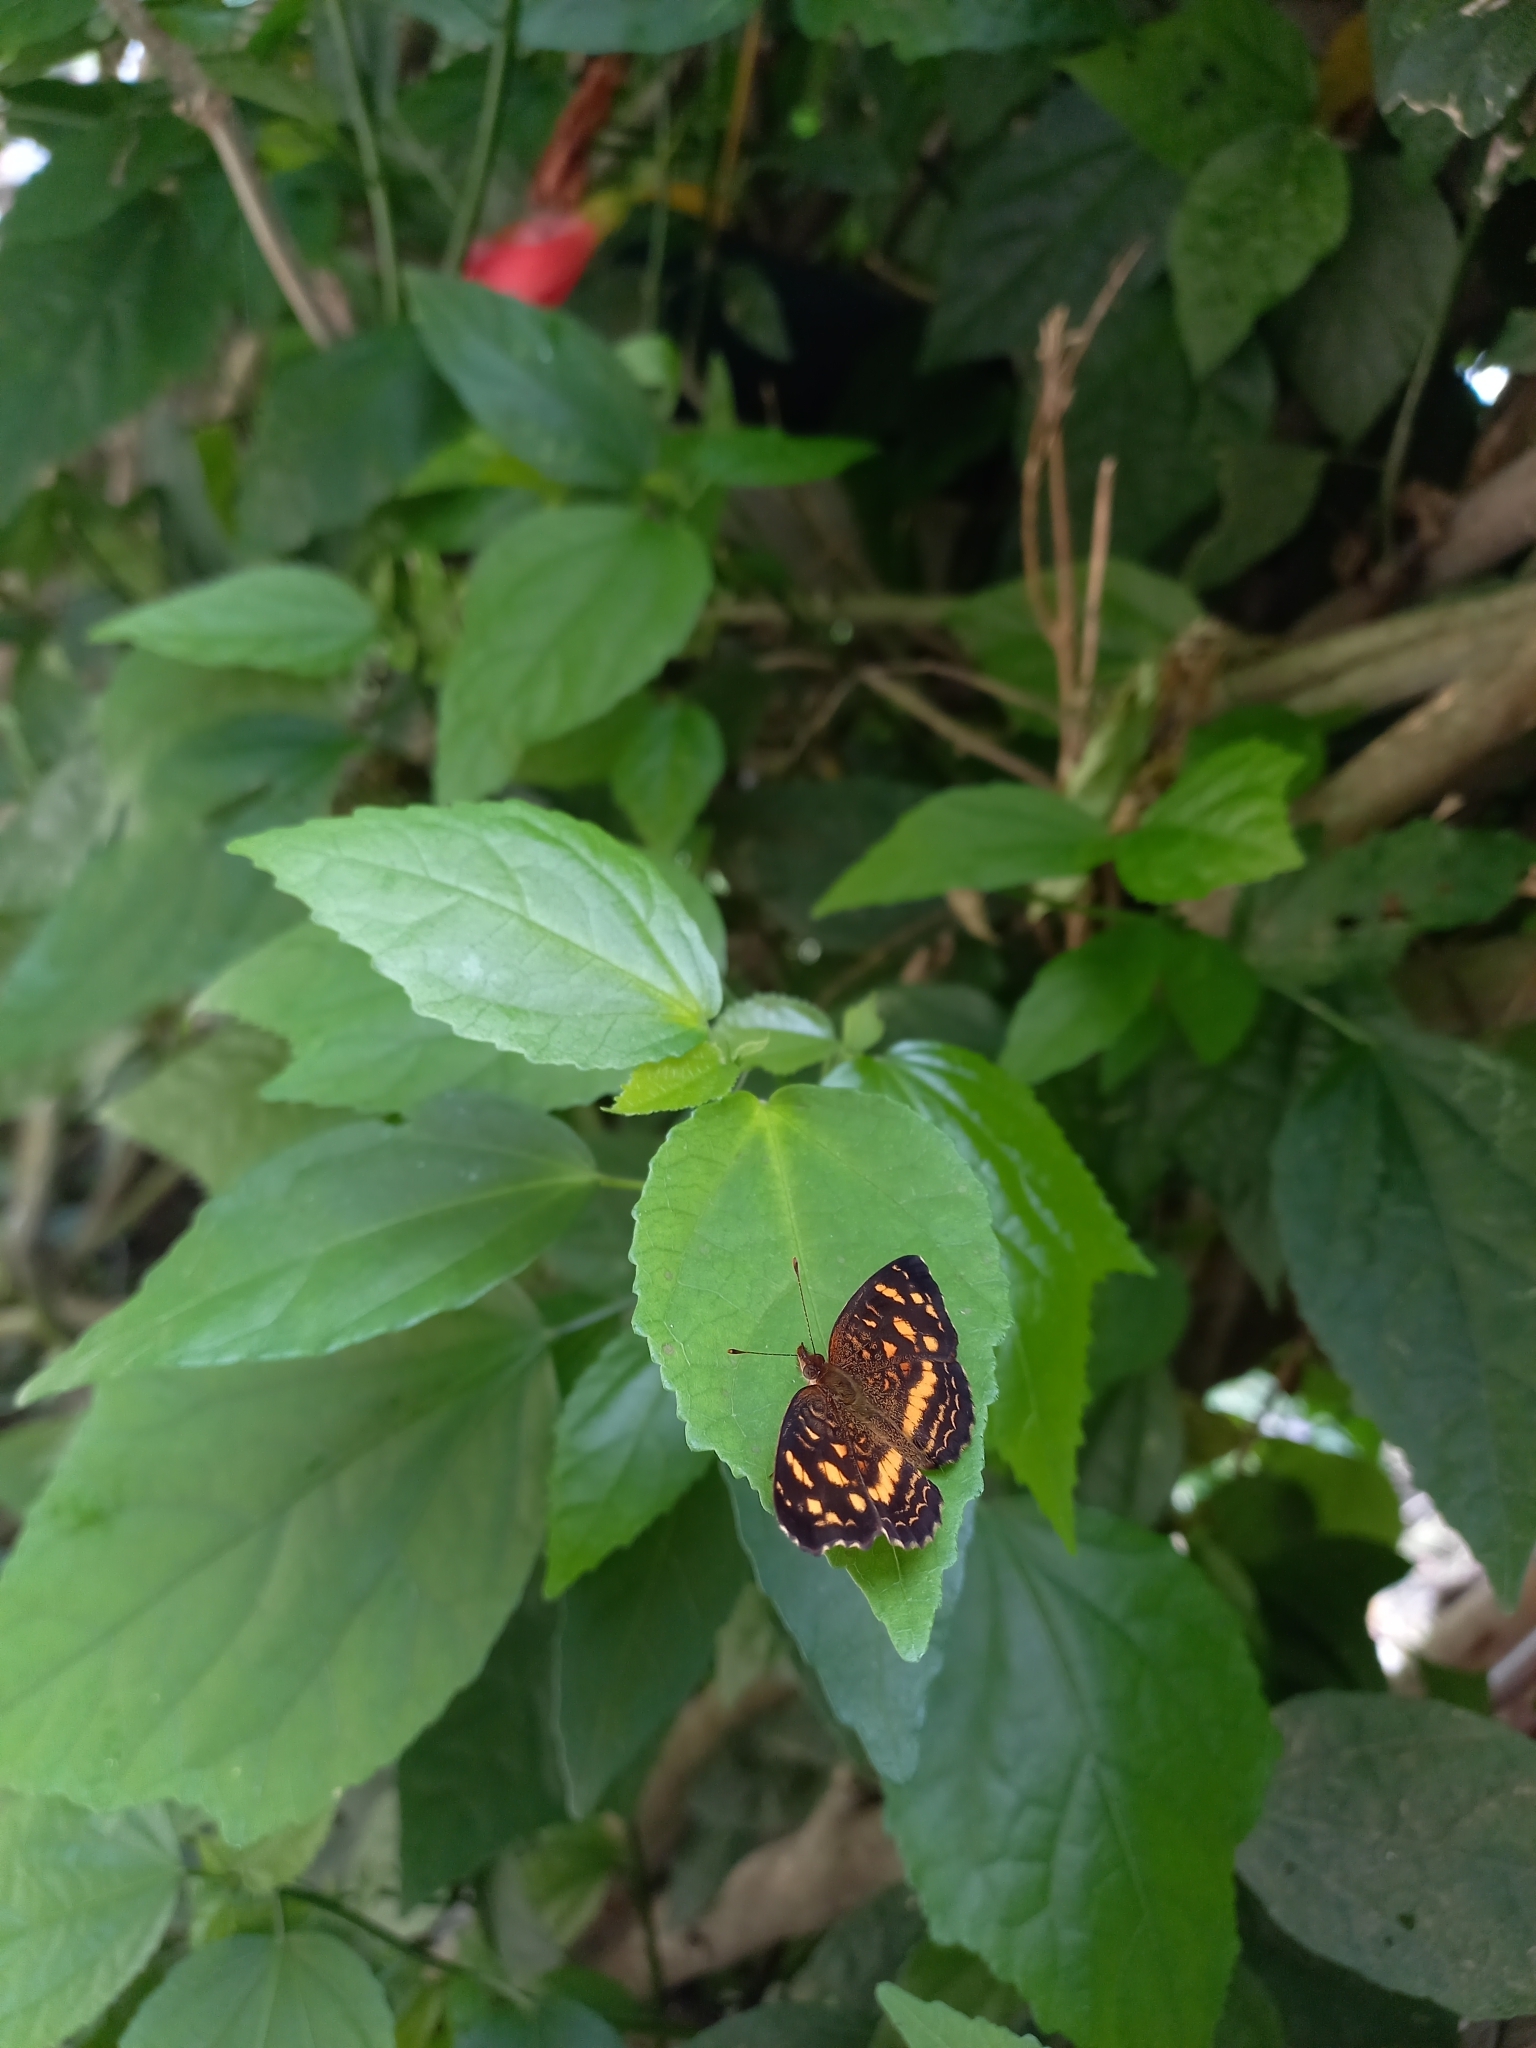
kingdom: Animalia
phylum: Arthropoda
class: Insecta
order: Lepidoptera
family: Nymphalidae
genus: Anthanassa
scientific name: Anthanassa drusilla
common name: Orange-patched crescent
